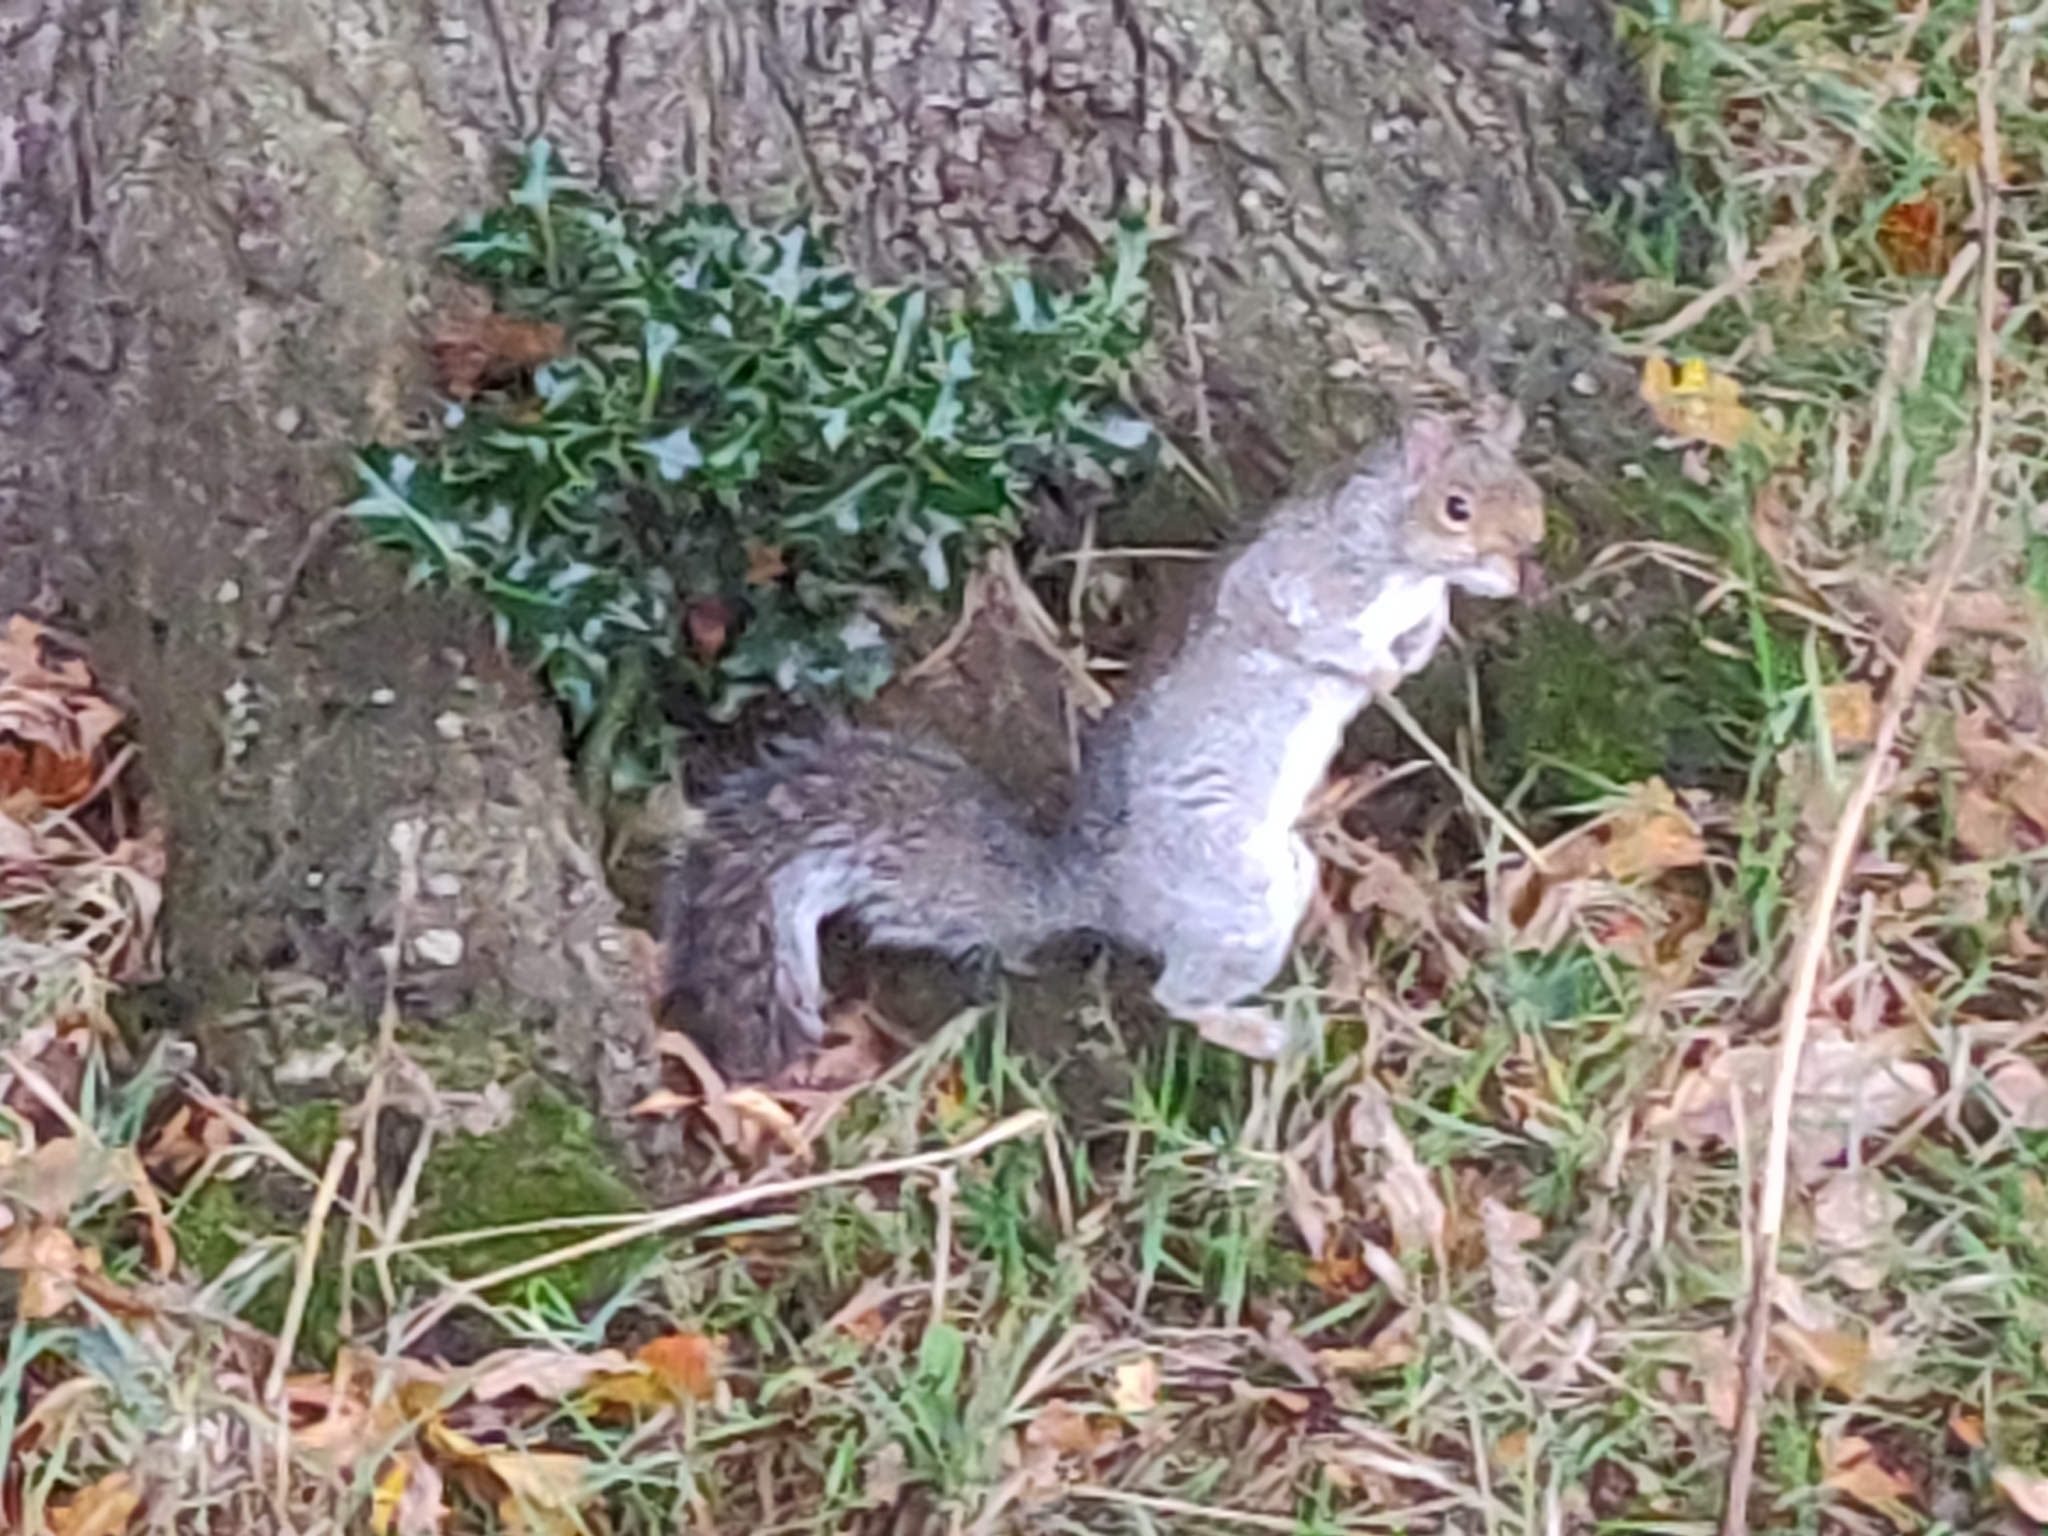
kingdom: Animalia
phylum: Chordata
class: Mammalia
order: Rodentia
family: Sciuridae
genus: Sciurus
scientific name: Sciurus carolinensis
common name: Eastern gray squirrel
